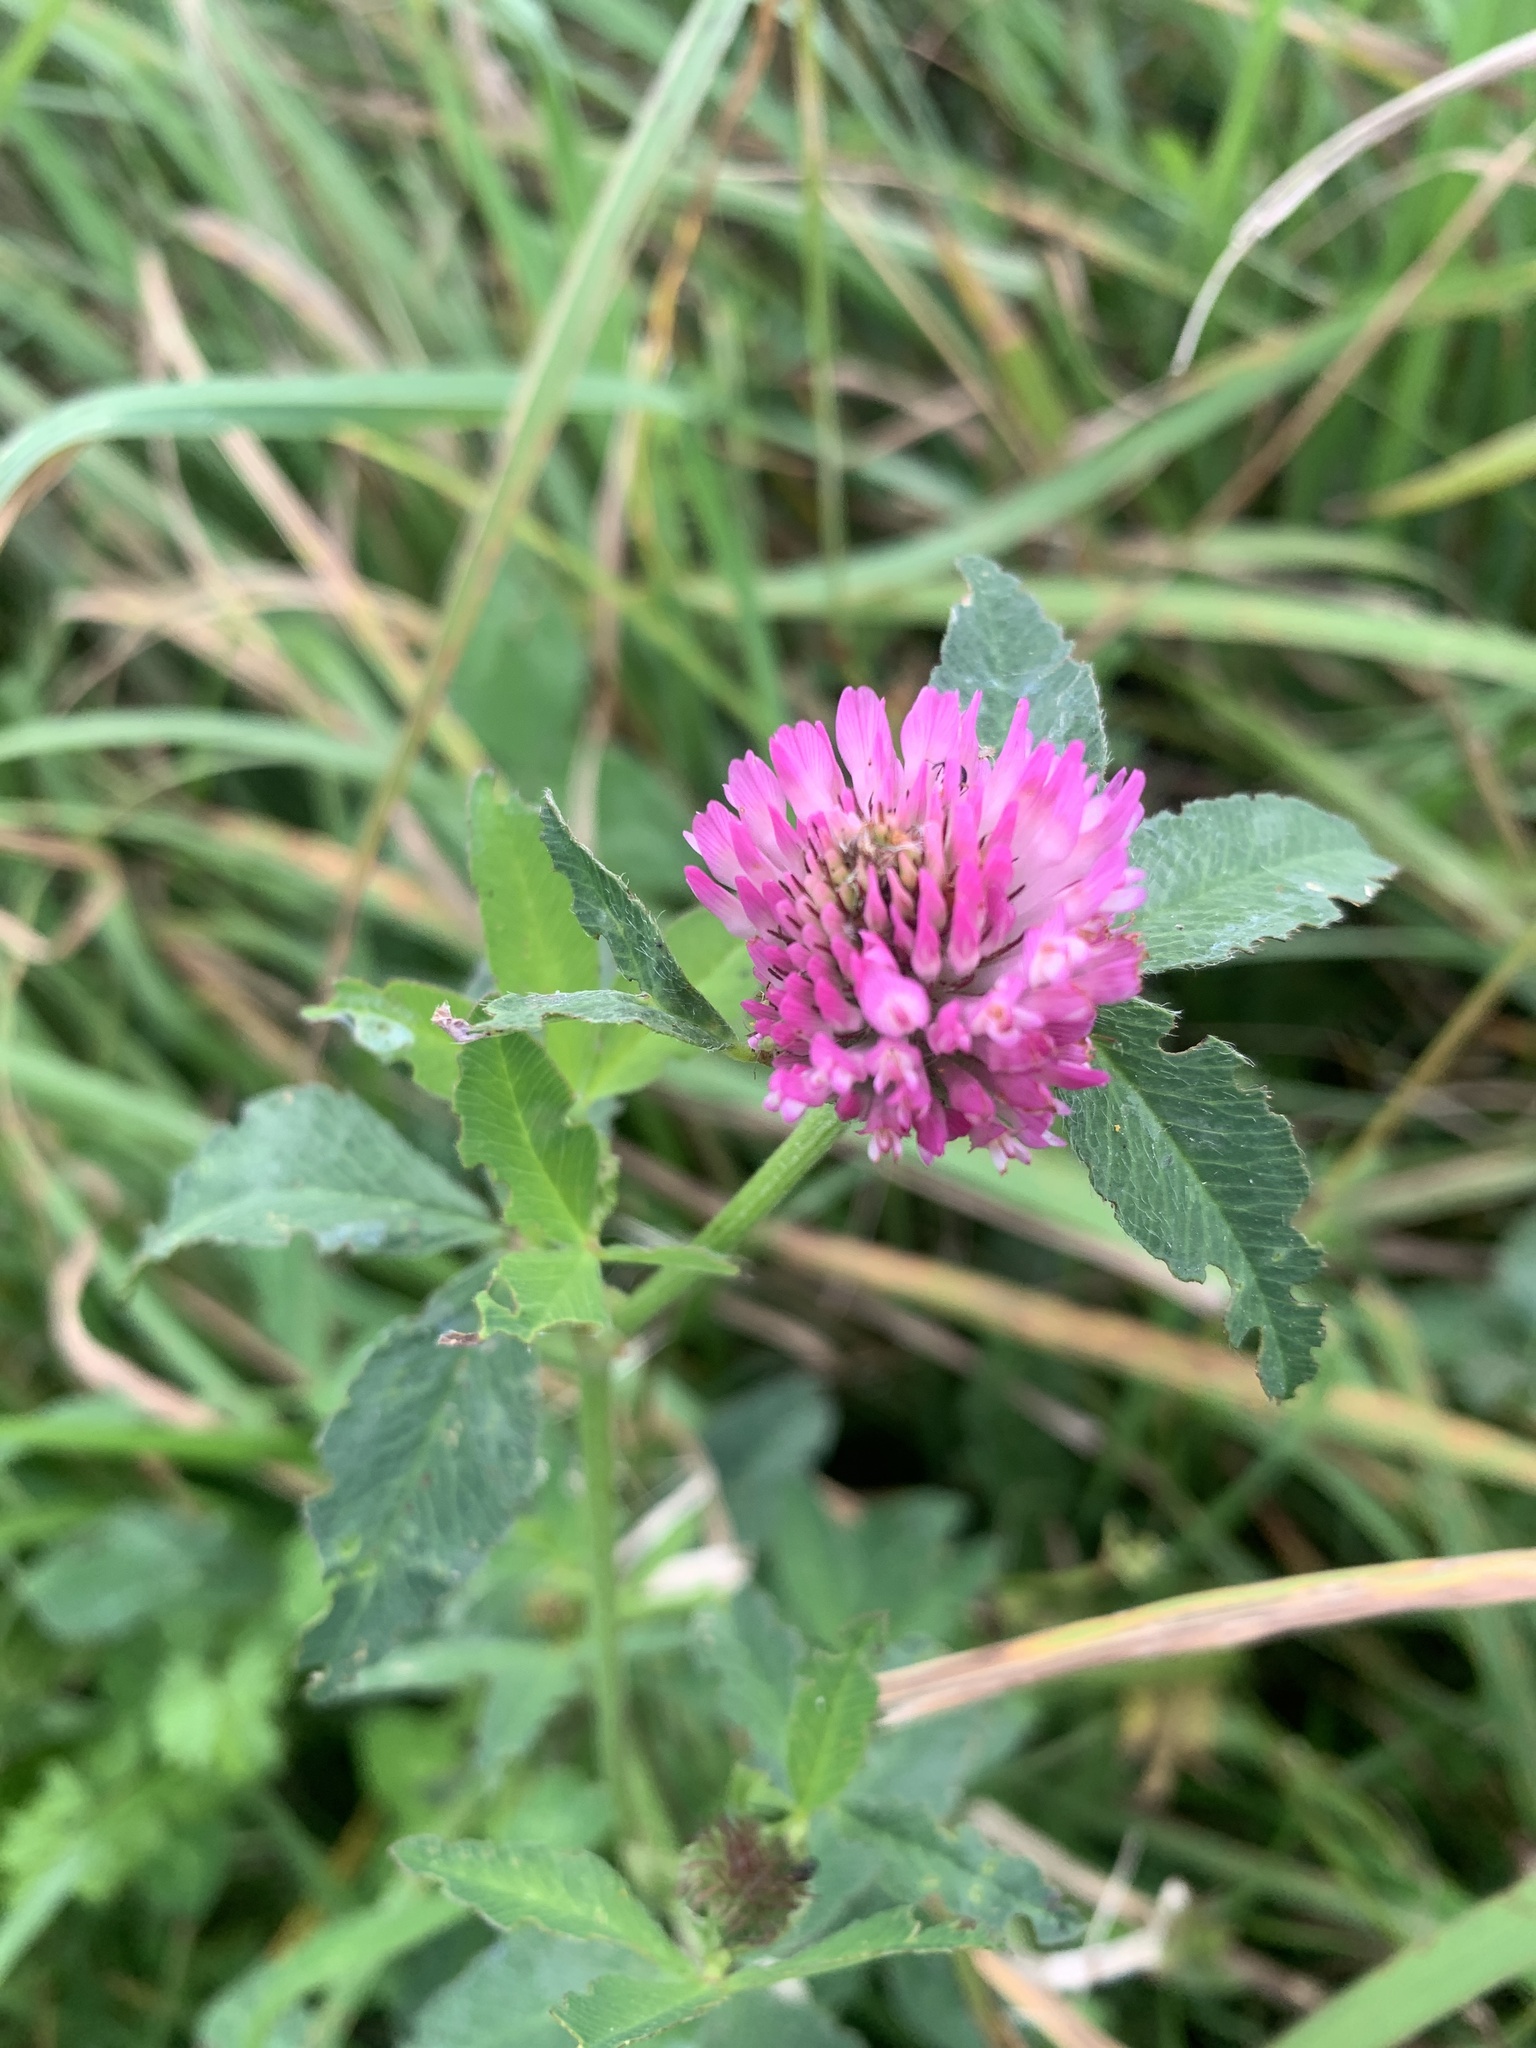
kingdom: Plantae
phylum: Tracheophyta
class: Magnoliopsida
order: Fabales
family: Fabaceae
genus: Trifolium
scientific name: Trifolium pratense
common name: Red clover
